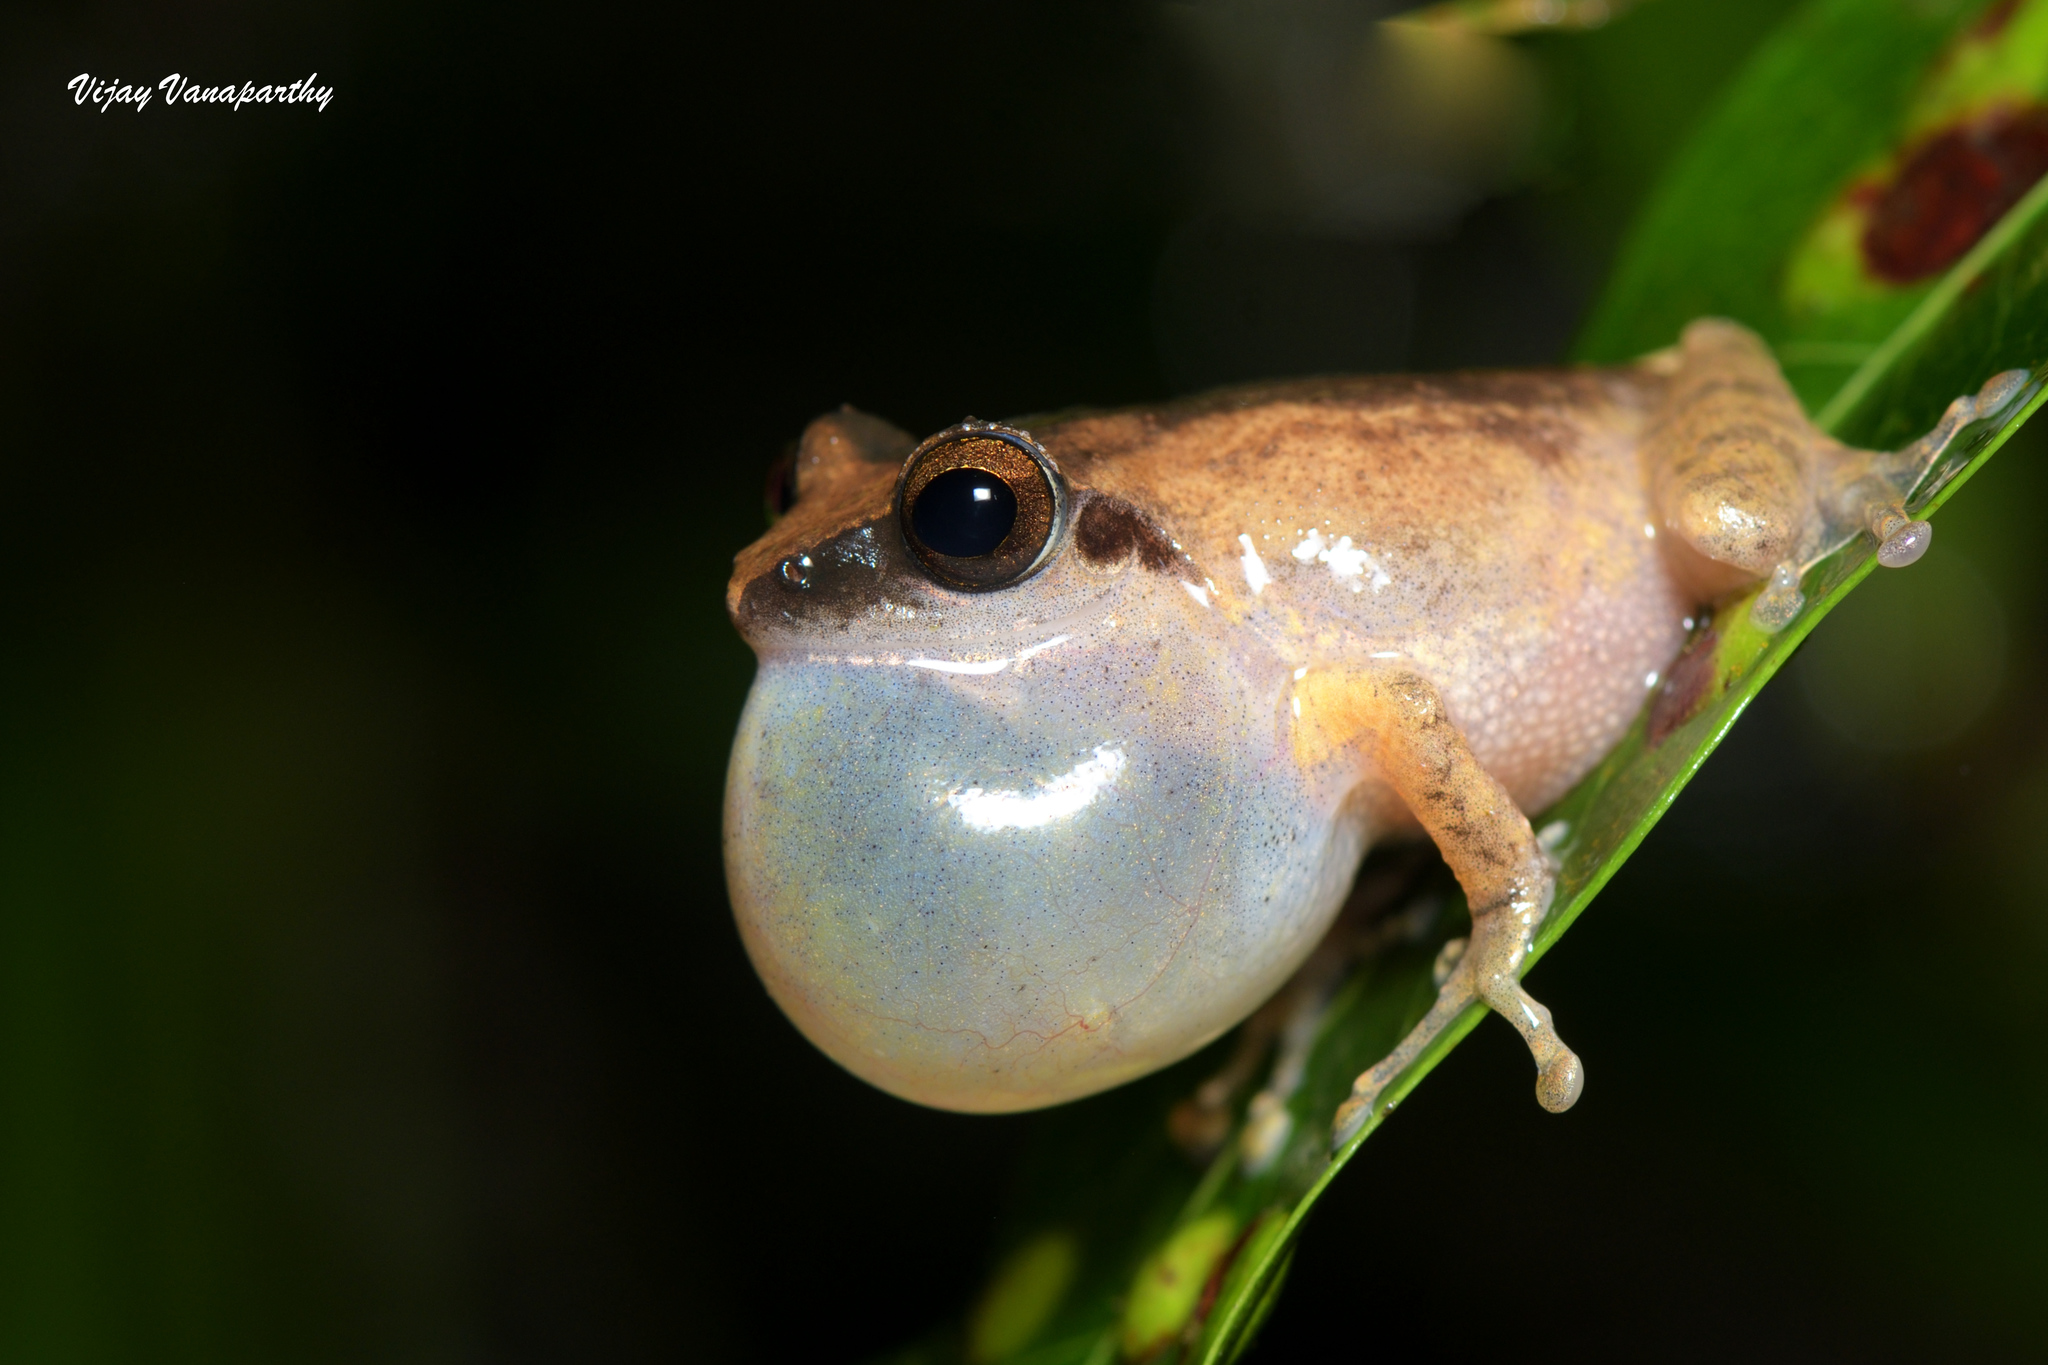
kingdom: Animalia
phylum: Chordata
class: Amphibia
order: Anura
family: Rhacophoridae
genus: Pseudophilautus
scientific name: Pseudophilautus wynaadensis
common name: Dark-eared bush frog
